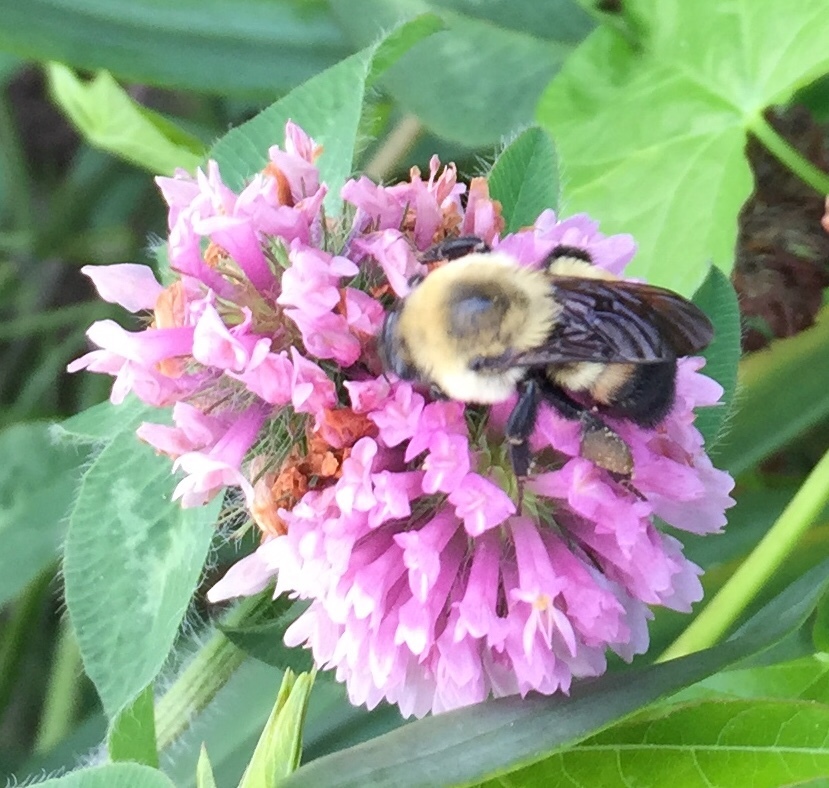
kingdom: Animalia
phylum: Arthropoda
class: Insecta
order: Hymenoptera
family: Apidae
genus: Bombus
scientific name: Bombus griseocollis
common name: Brown-belted bumble bee
